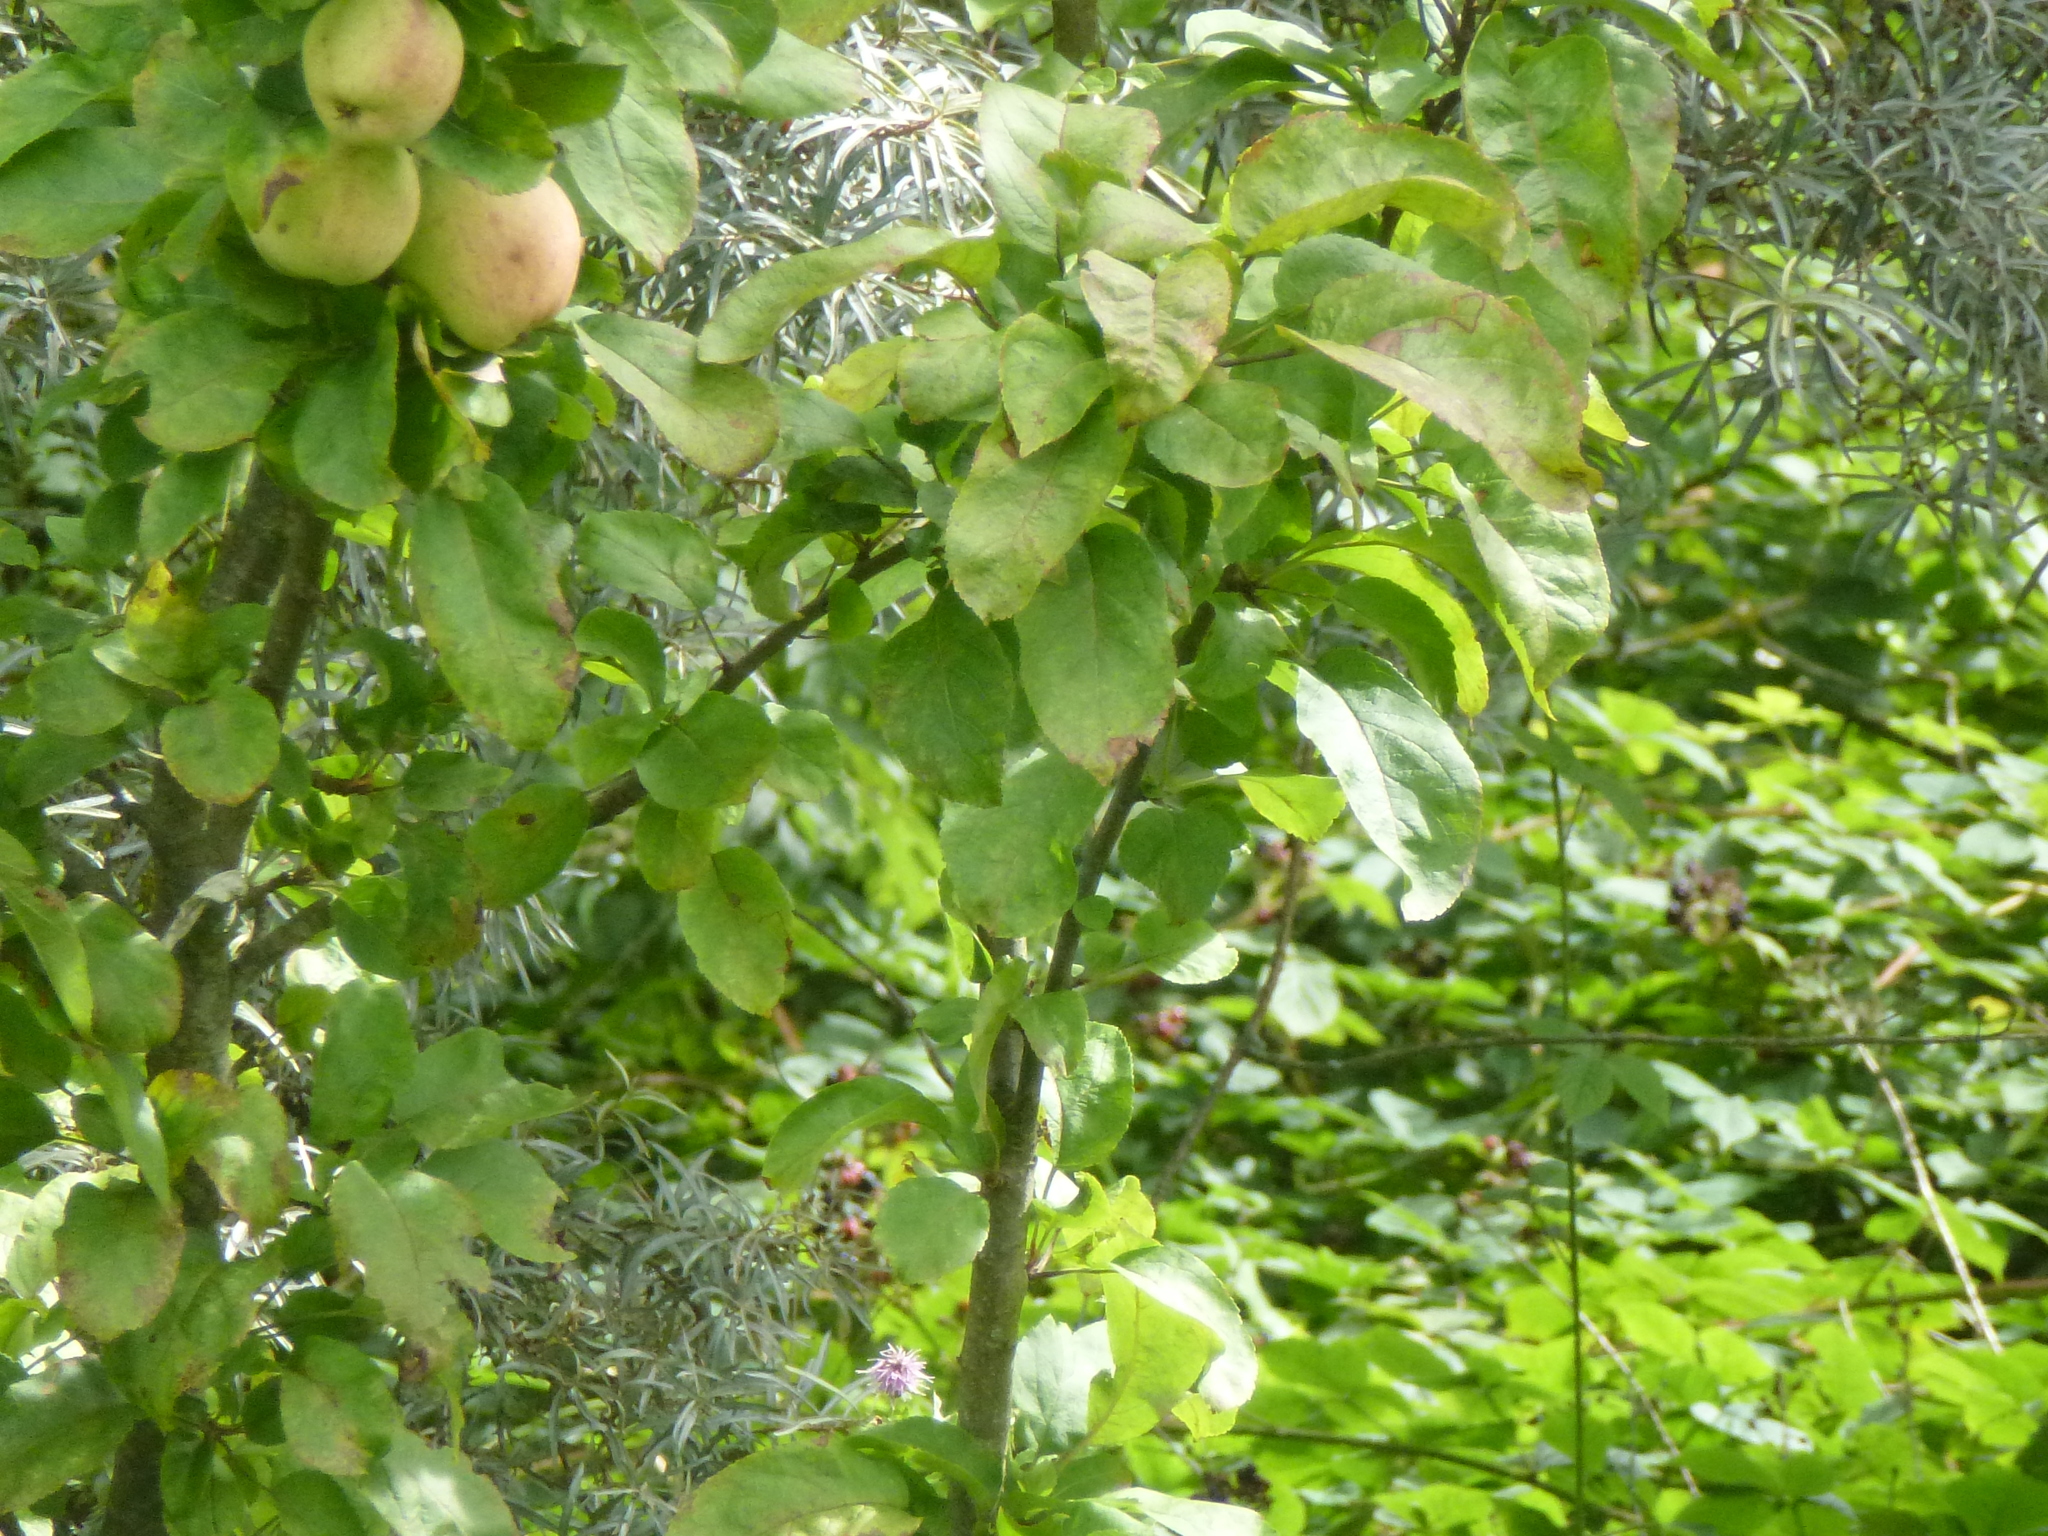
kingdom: Plantae
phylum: Tracheophyta
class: Magnoliopsida
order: Rosales
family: Rosaceae
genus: Malus
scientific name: Malus domestica
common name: Apple
